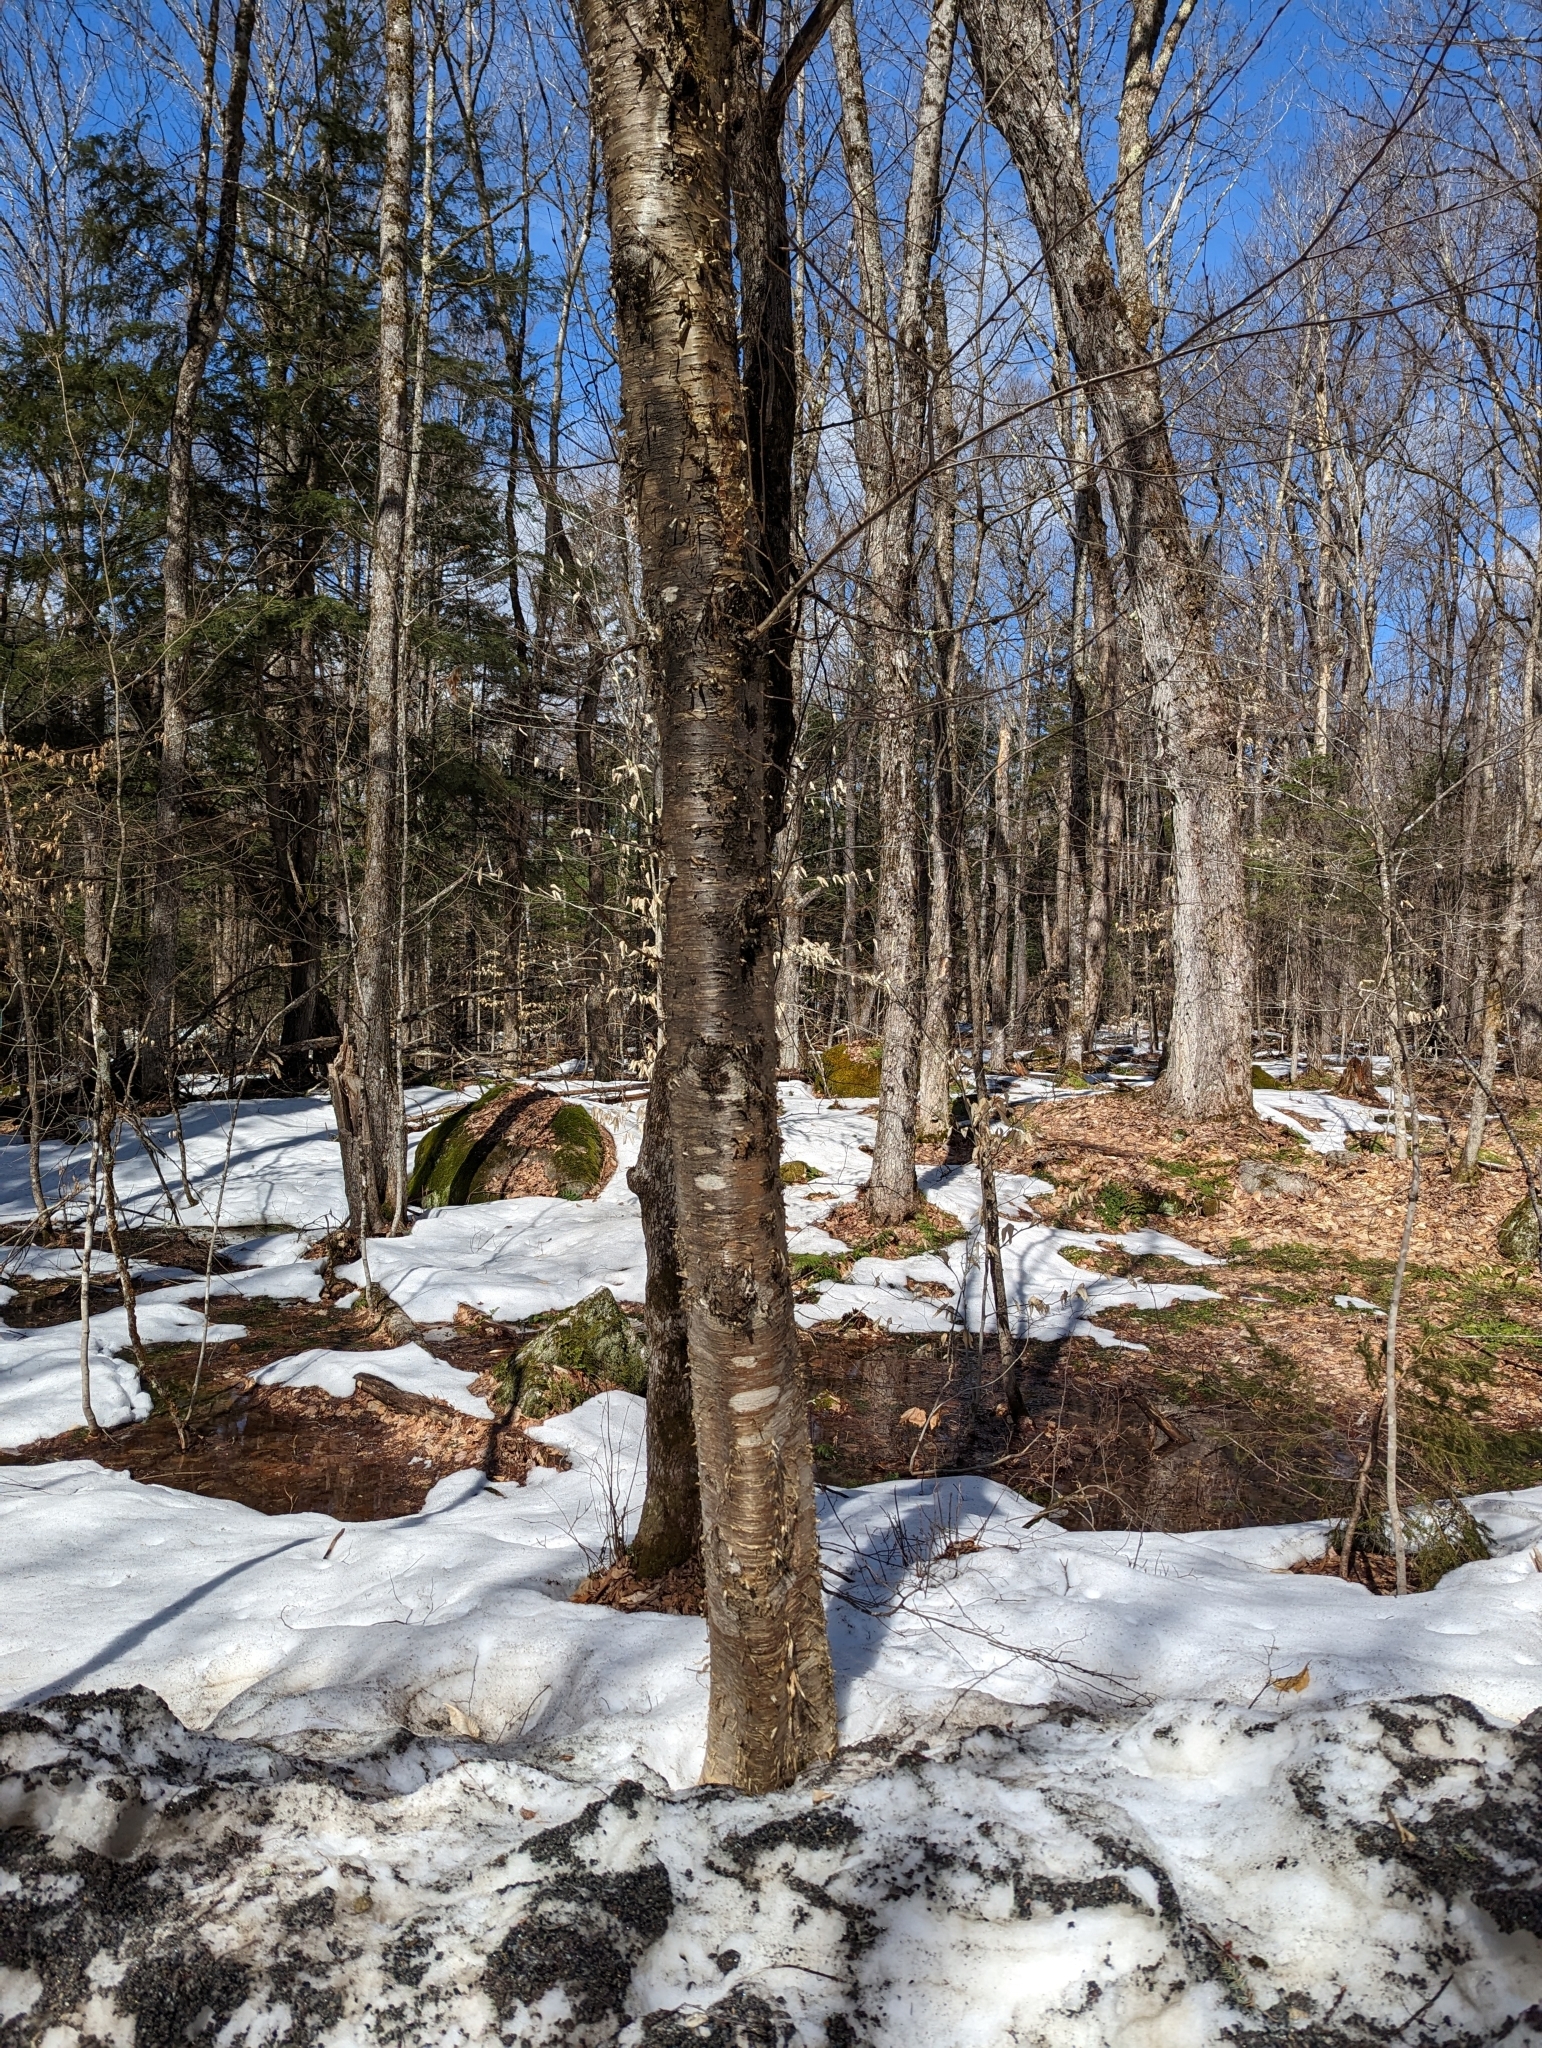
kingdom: Plantae
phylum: Tracheophyta
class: Magnoliopsida
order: Fagales
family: Betulaceae
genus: Betula
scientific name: Betula alleghaniensis
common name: Yellow birch
